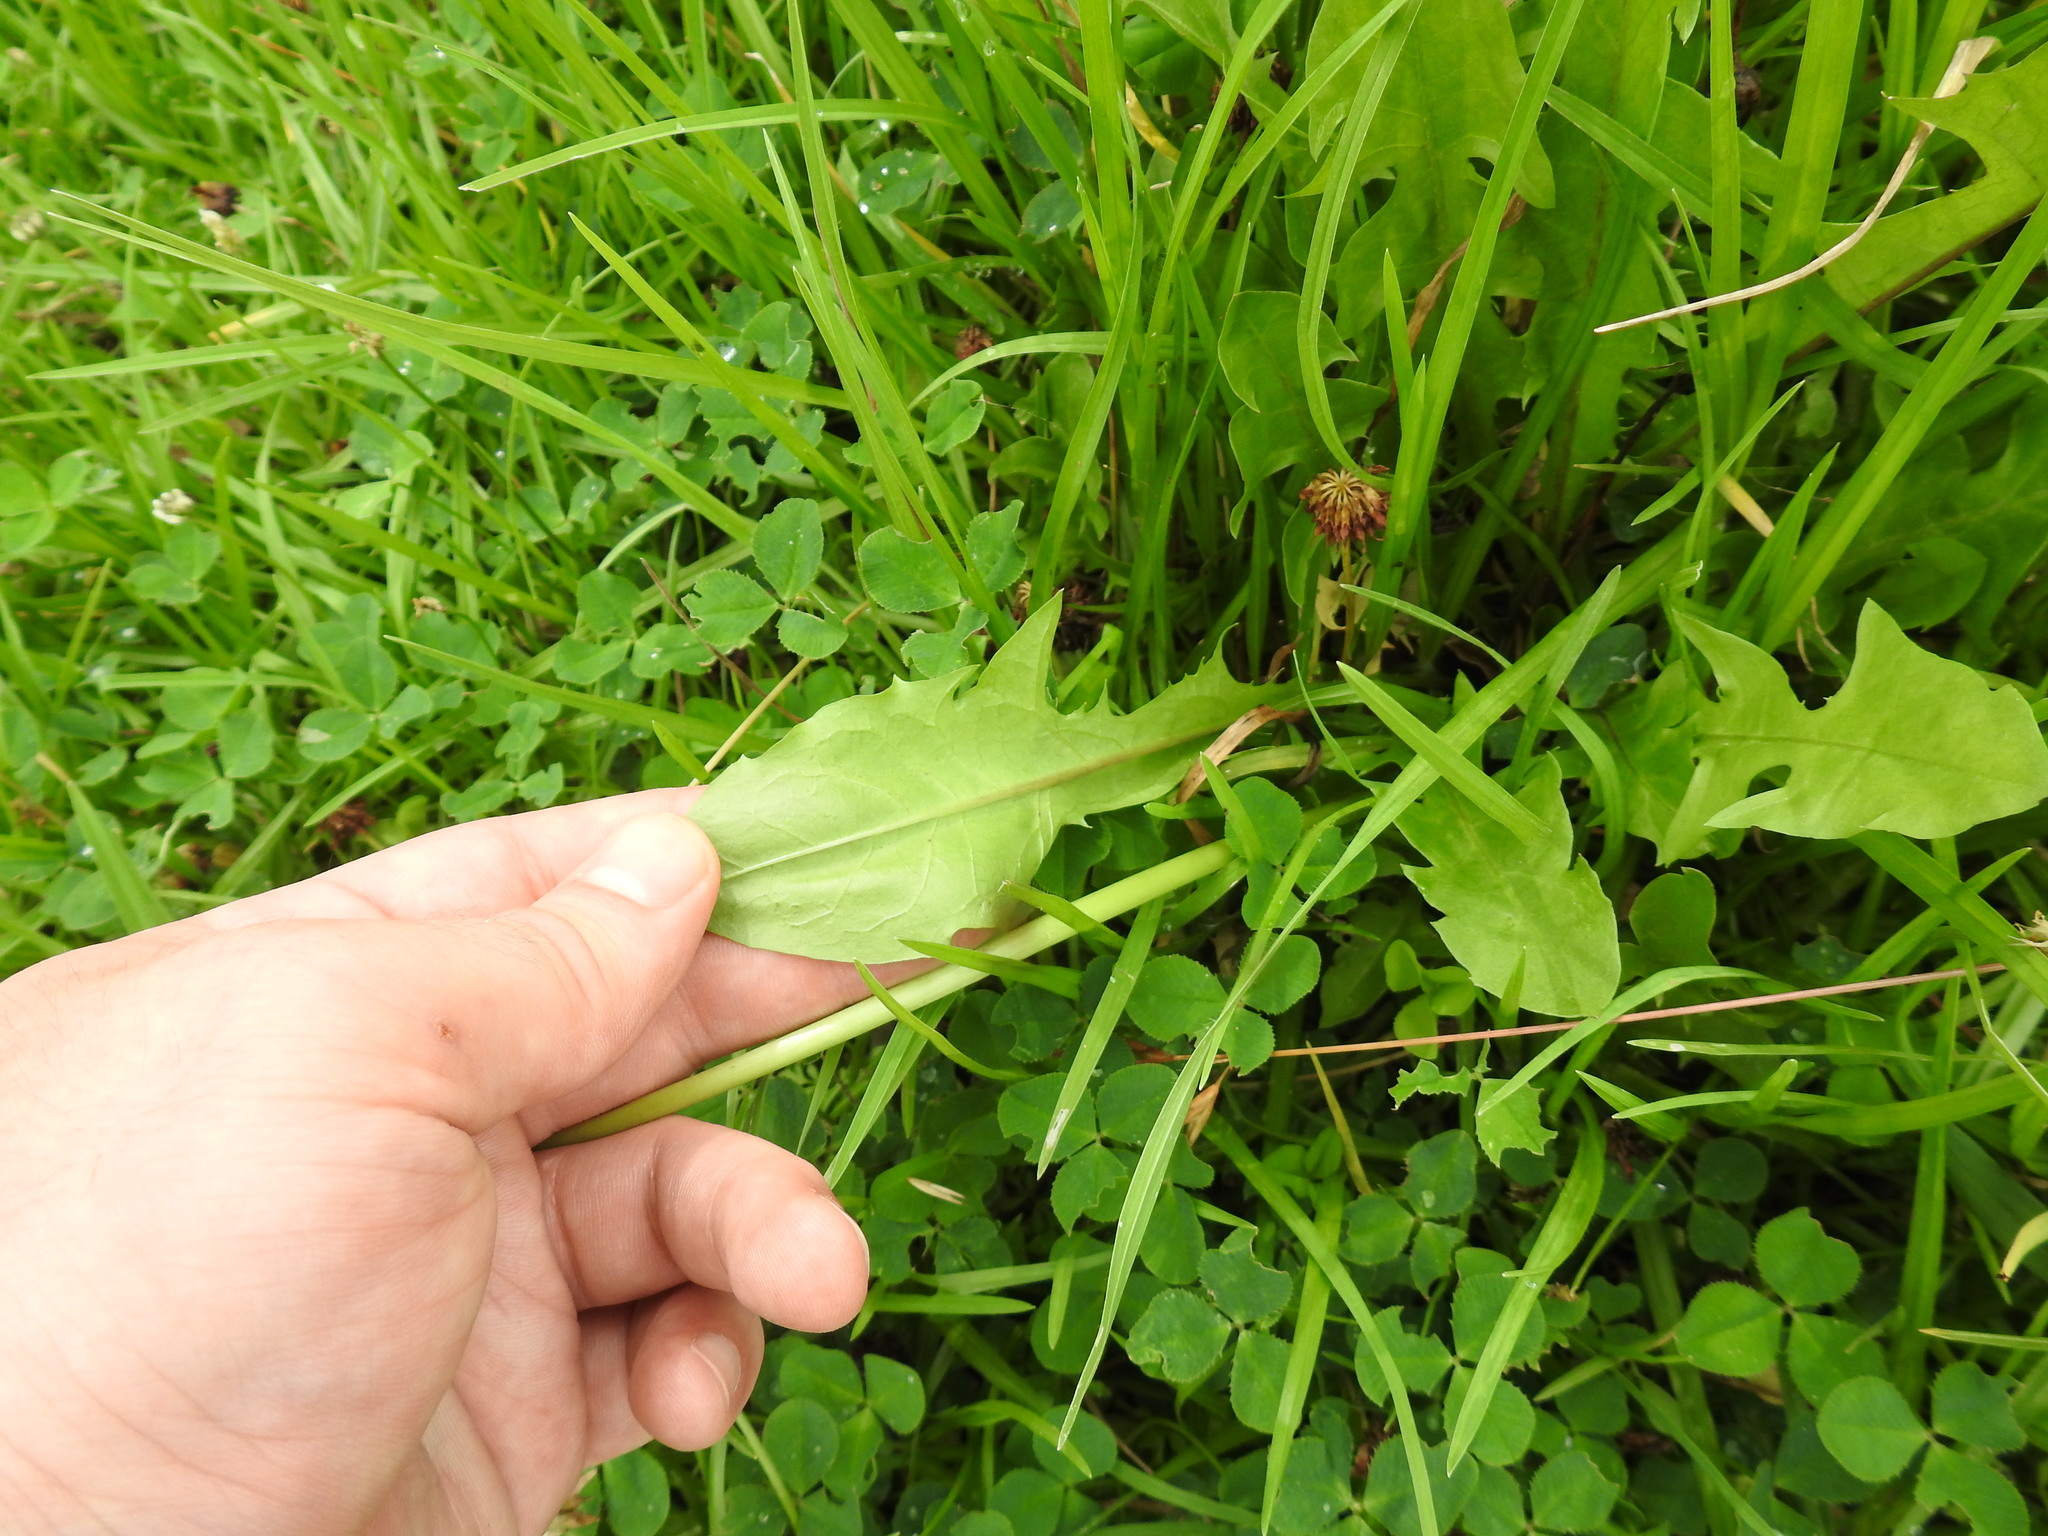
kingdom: Plantae
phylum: Tracheophyta
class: Magnoliopsida
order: Asterales
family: Asteraceae
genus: Taraxacum
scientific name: Taraxacum officinale
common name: Common dandelion
